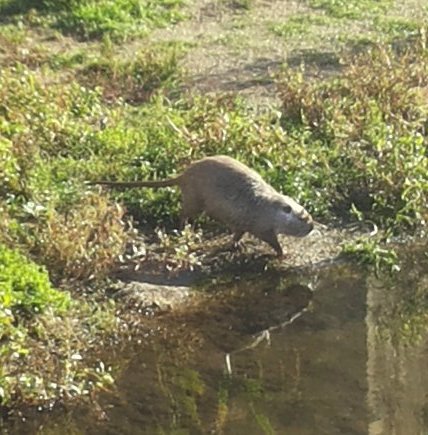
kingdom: Animalia
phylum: Chordata
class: Mammalia
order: Rodentia
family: Myocastoridae
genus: Myocastor
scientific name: Myocastor coypus
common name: Coypu
